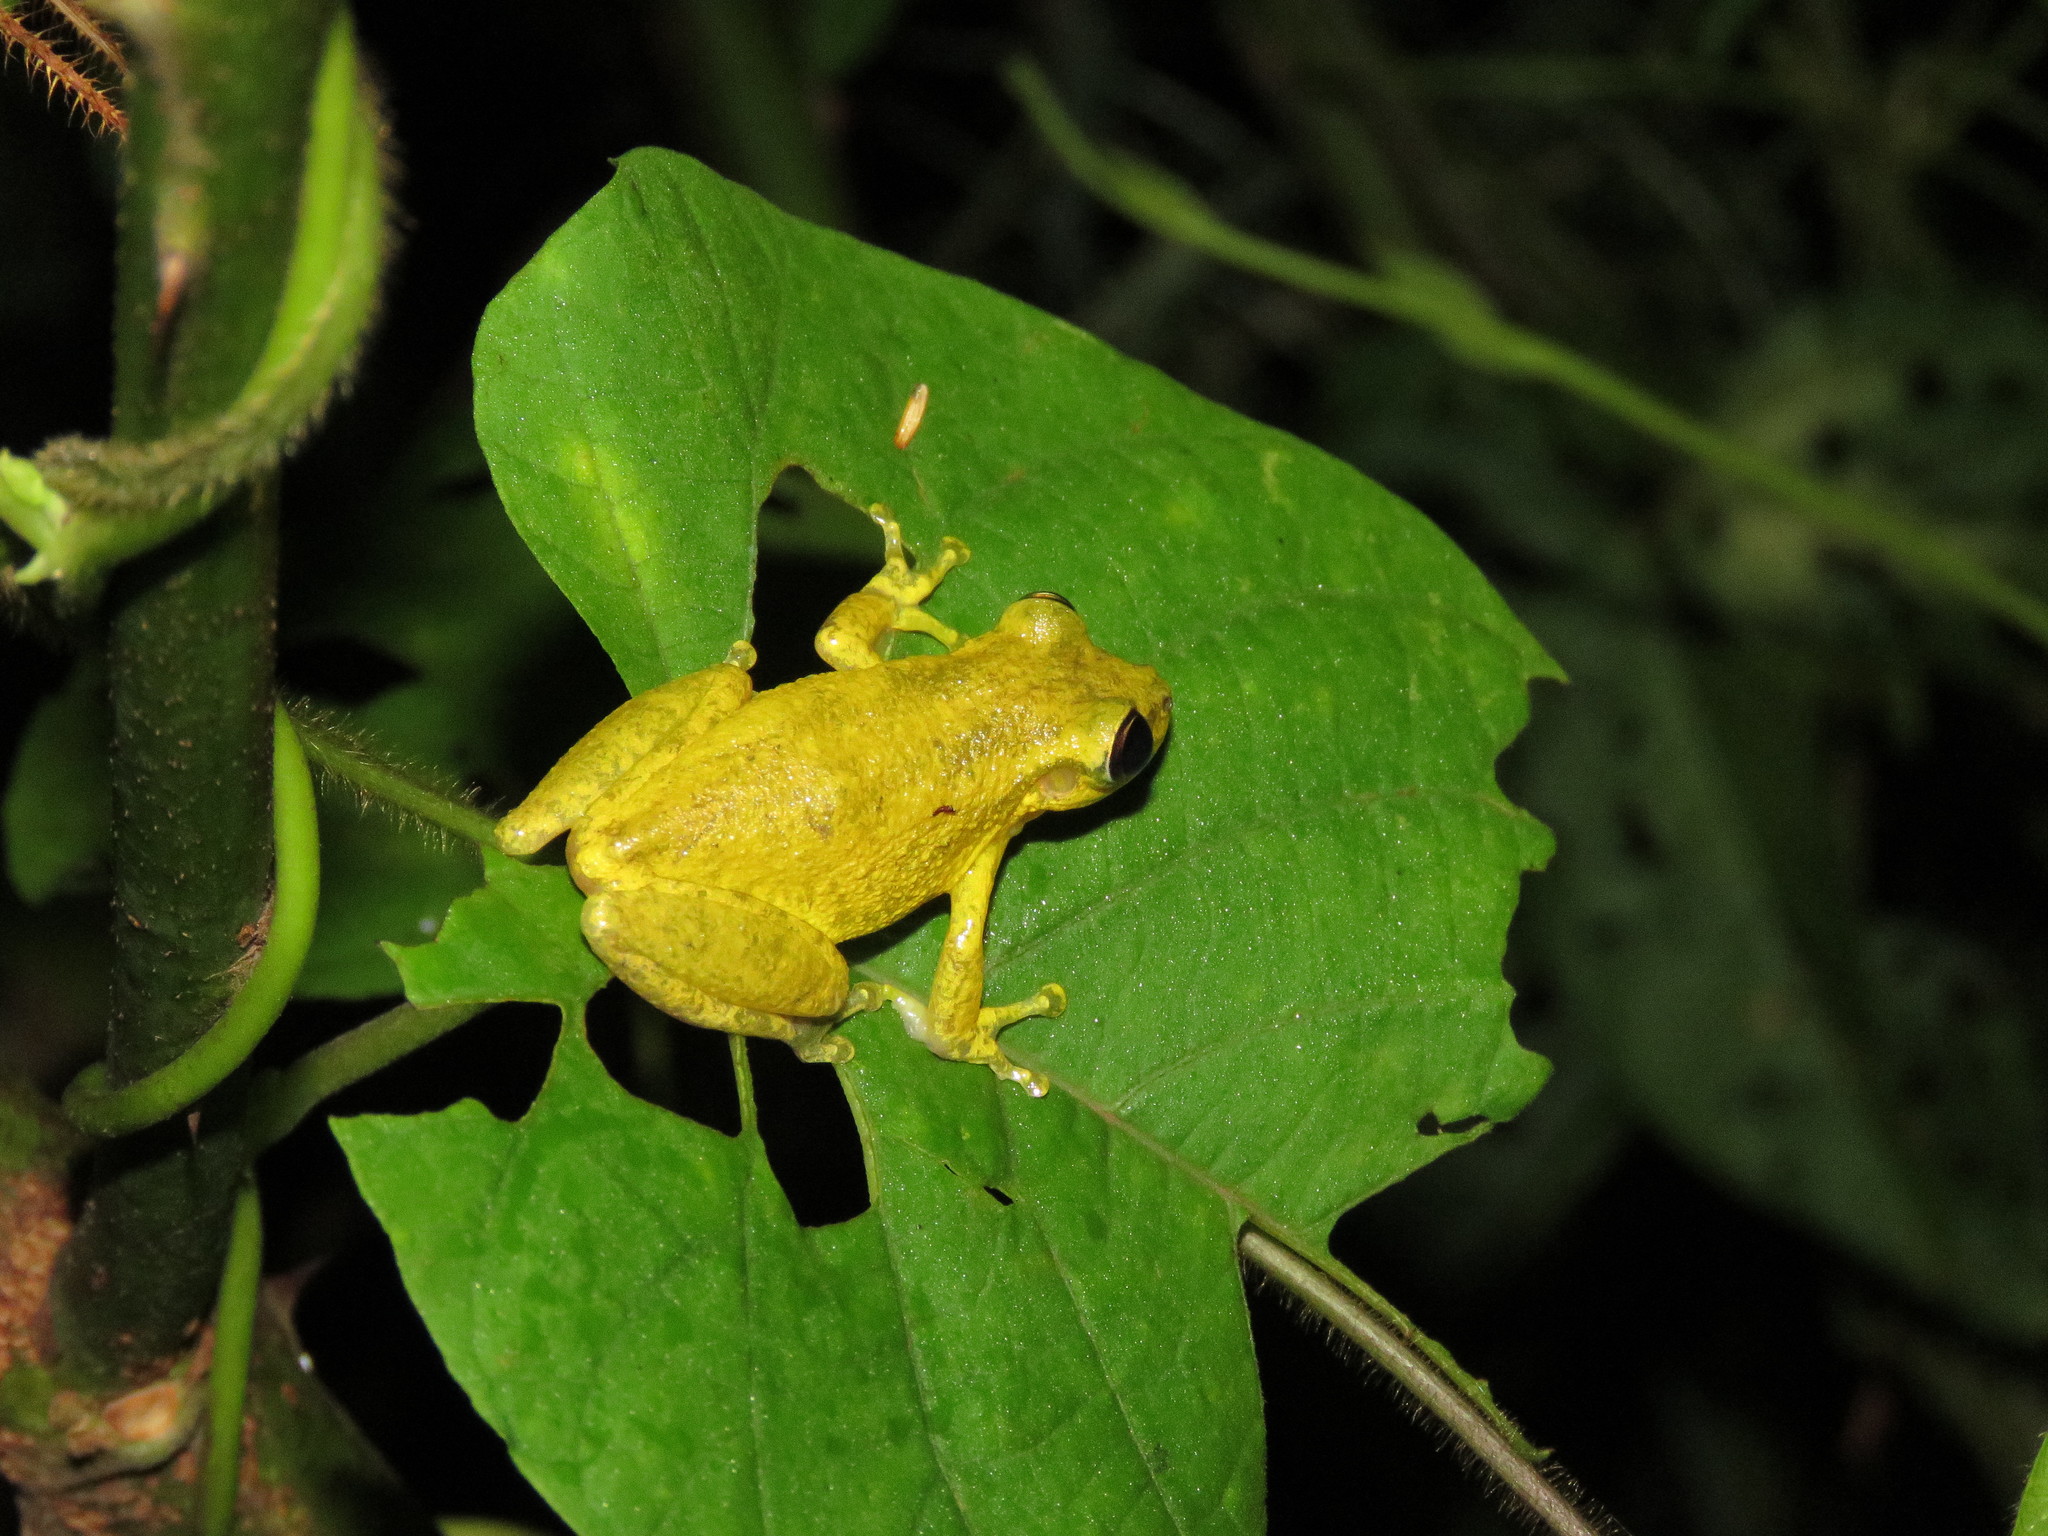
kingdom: Animalia
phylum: Chordata
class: Amphibia
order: Anura
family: Hylidae
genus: Scinax
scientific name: Scinax ruber
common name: Red snouted treefrog
